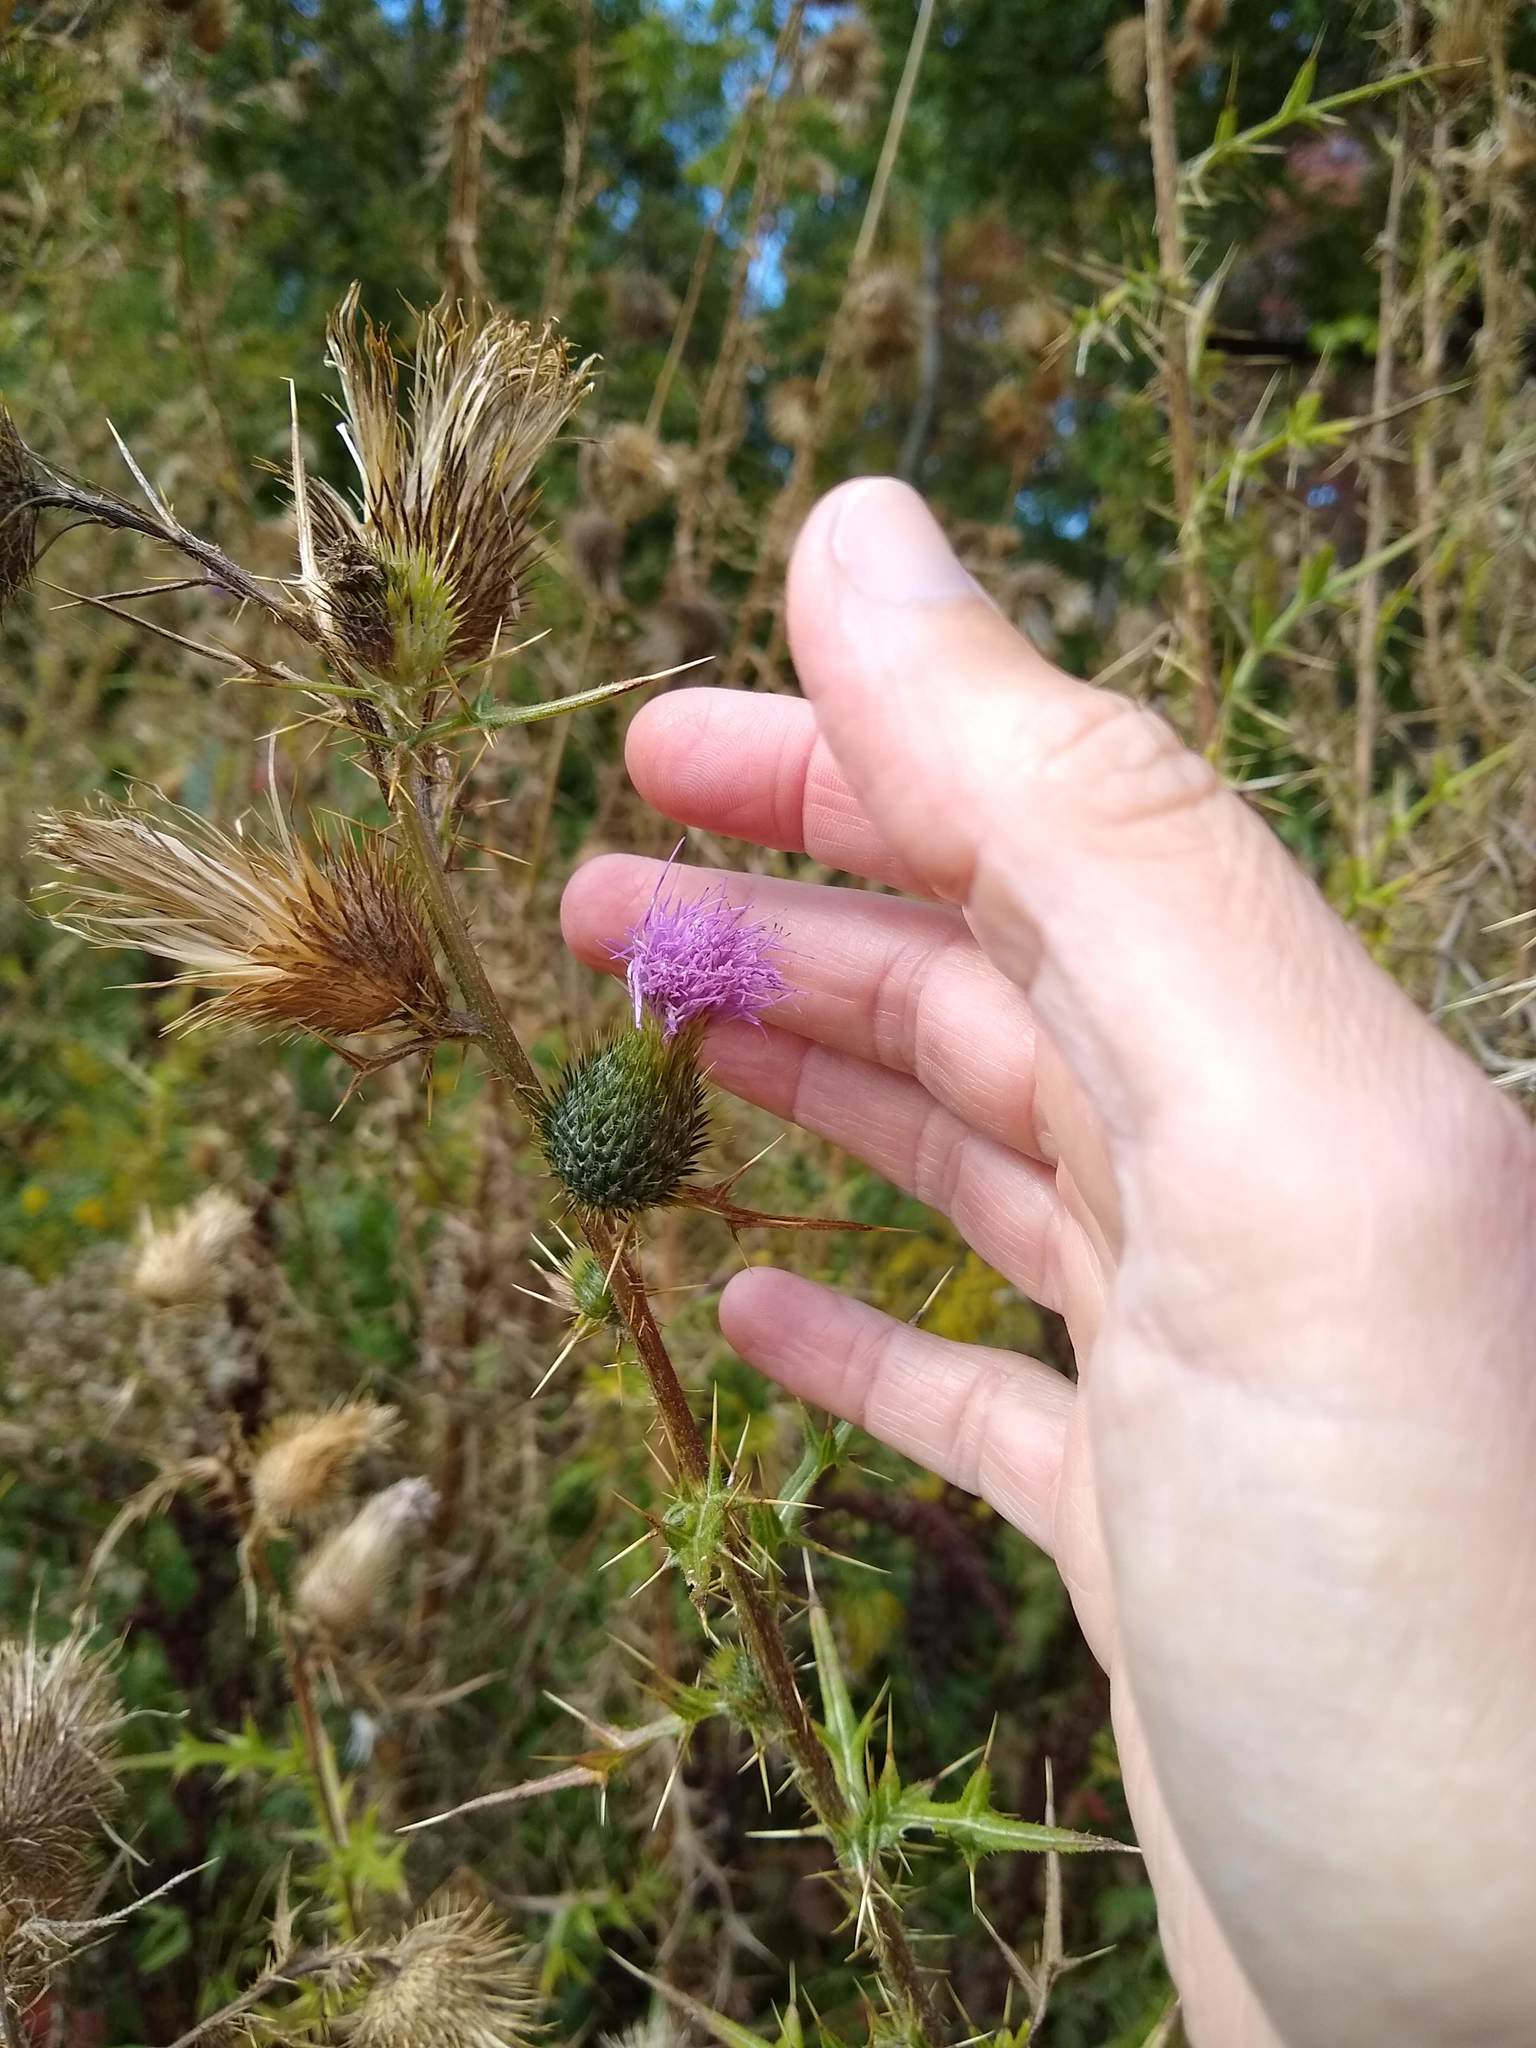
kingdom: Plantae
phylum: Tracheophyta
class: Magnoliopsida
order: Asterales
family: Asteraceae
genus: Cirsium
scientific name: Cirsium vulgare
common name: Bull thistle
